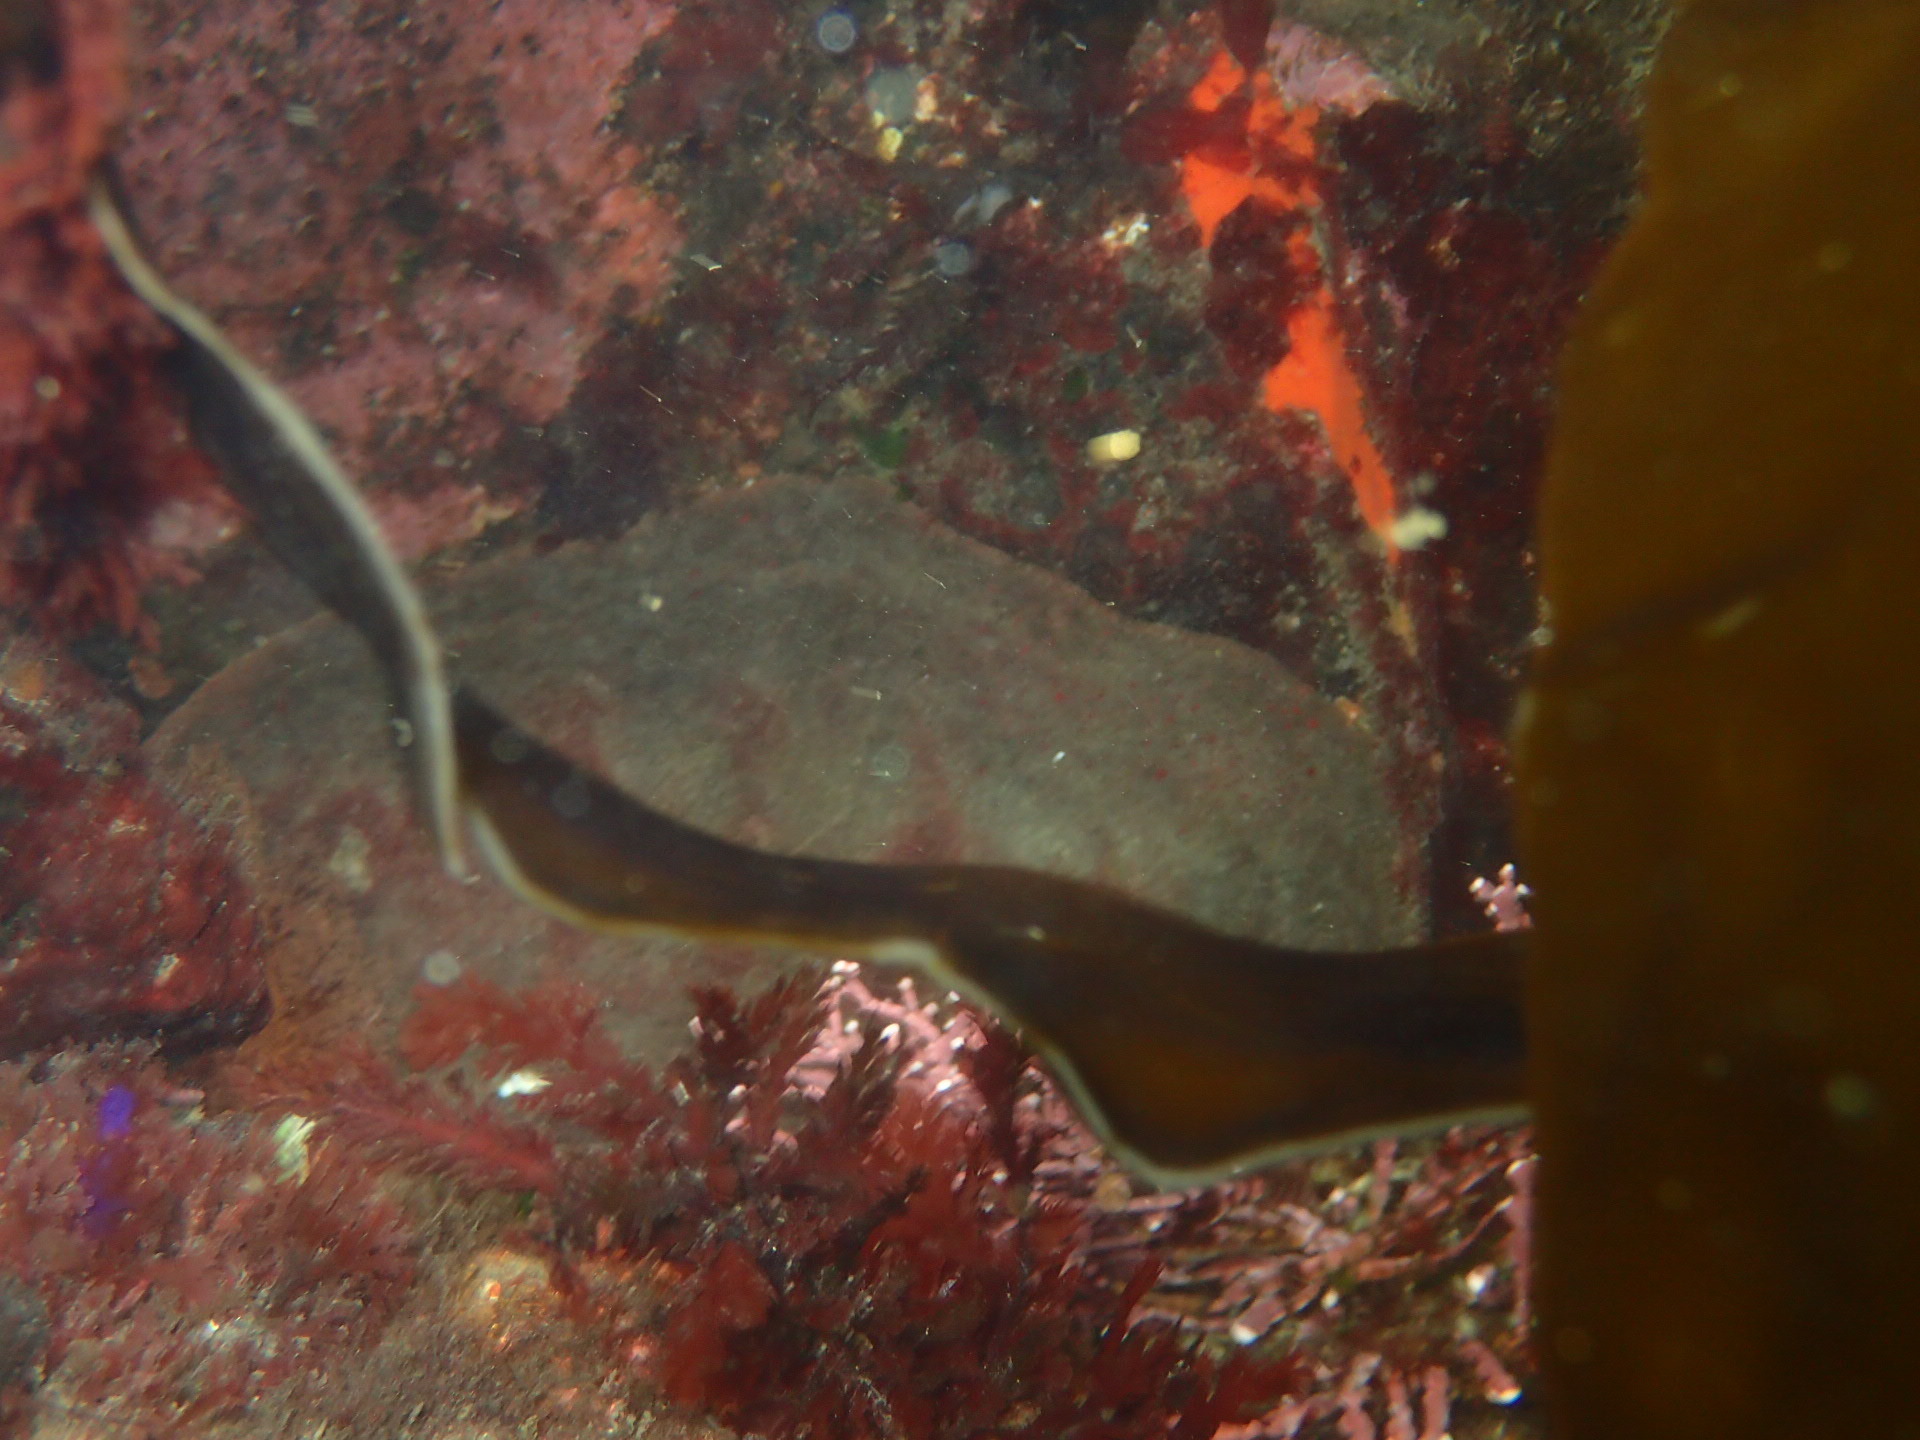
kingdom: Animalia
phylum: Mollusca
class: Polyplacophora
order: Chitonida
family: Acanthochitonidae
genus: Cryptochiton
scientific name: Cryptochiton stelleri
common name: Giant pacific chiton
